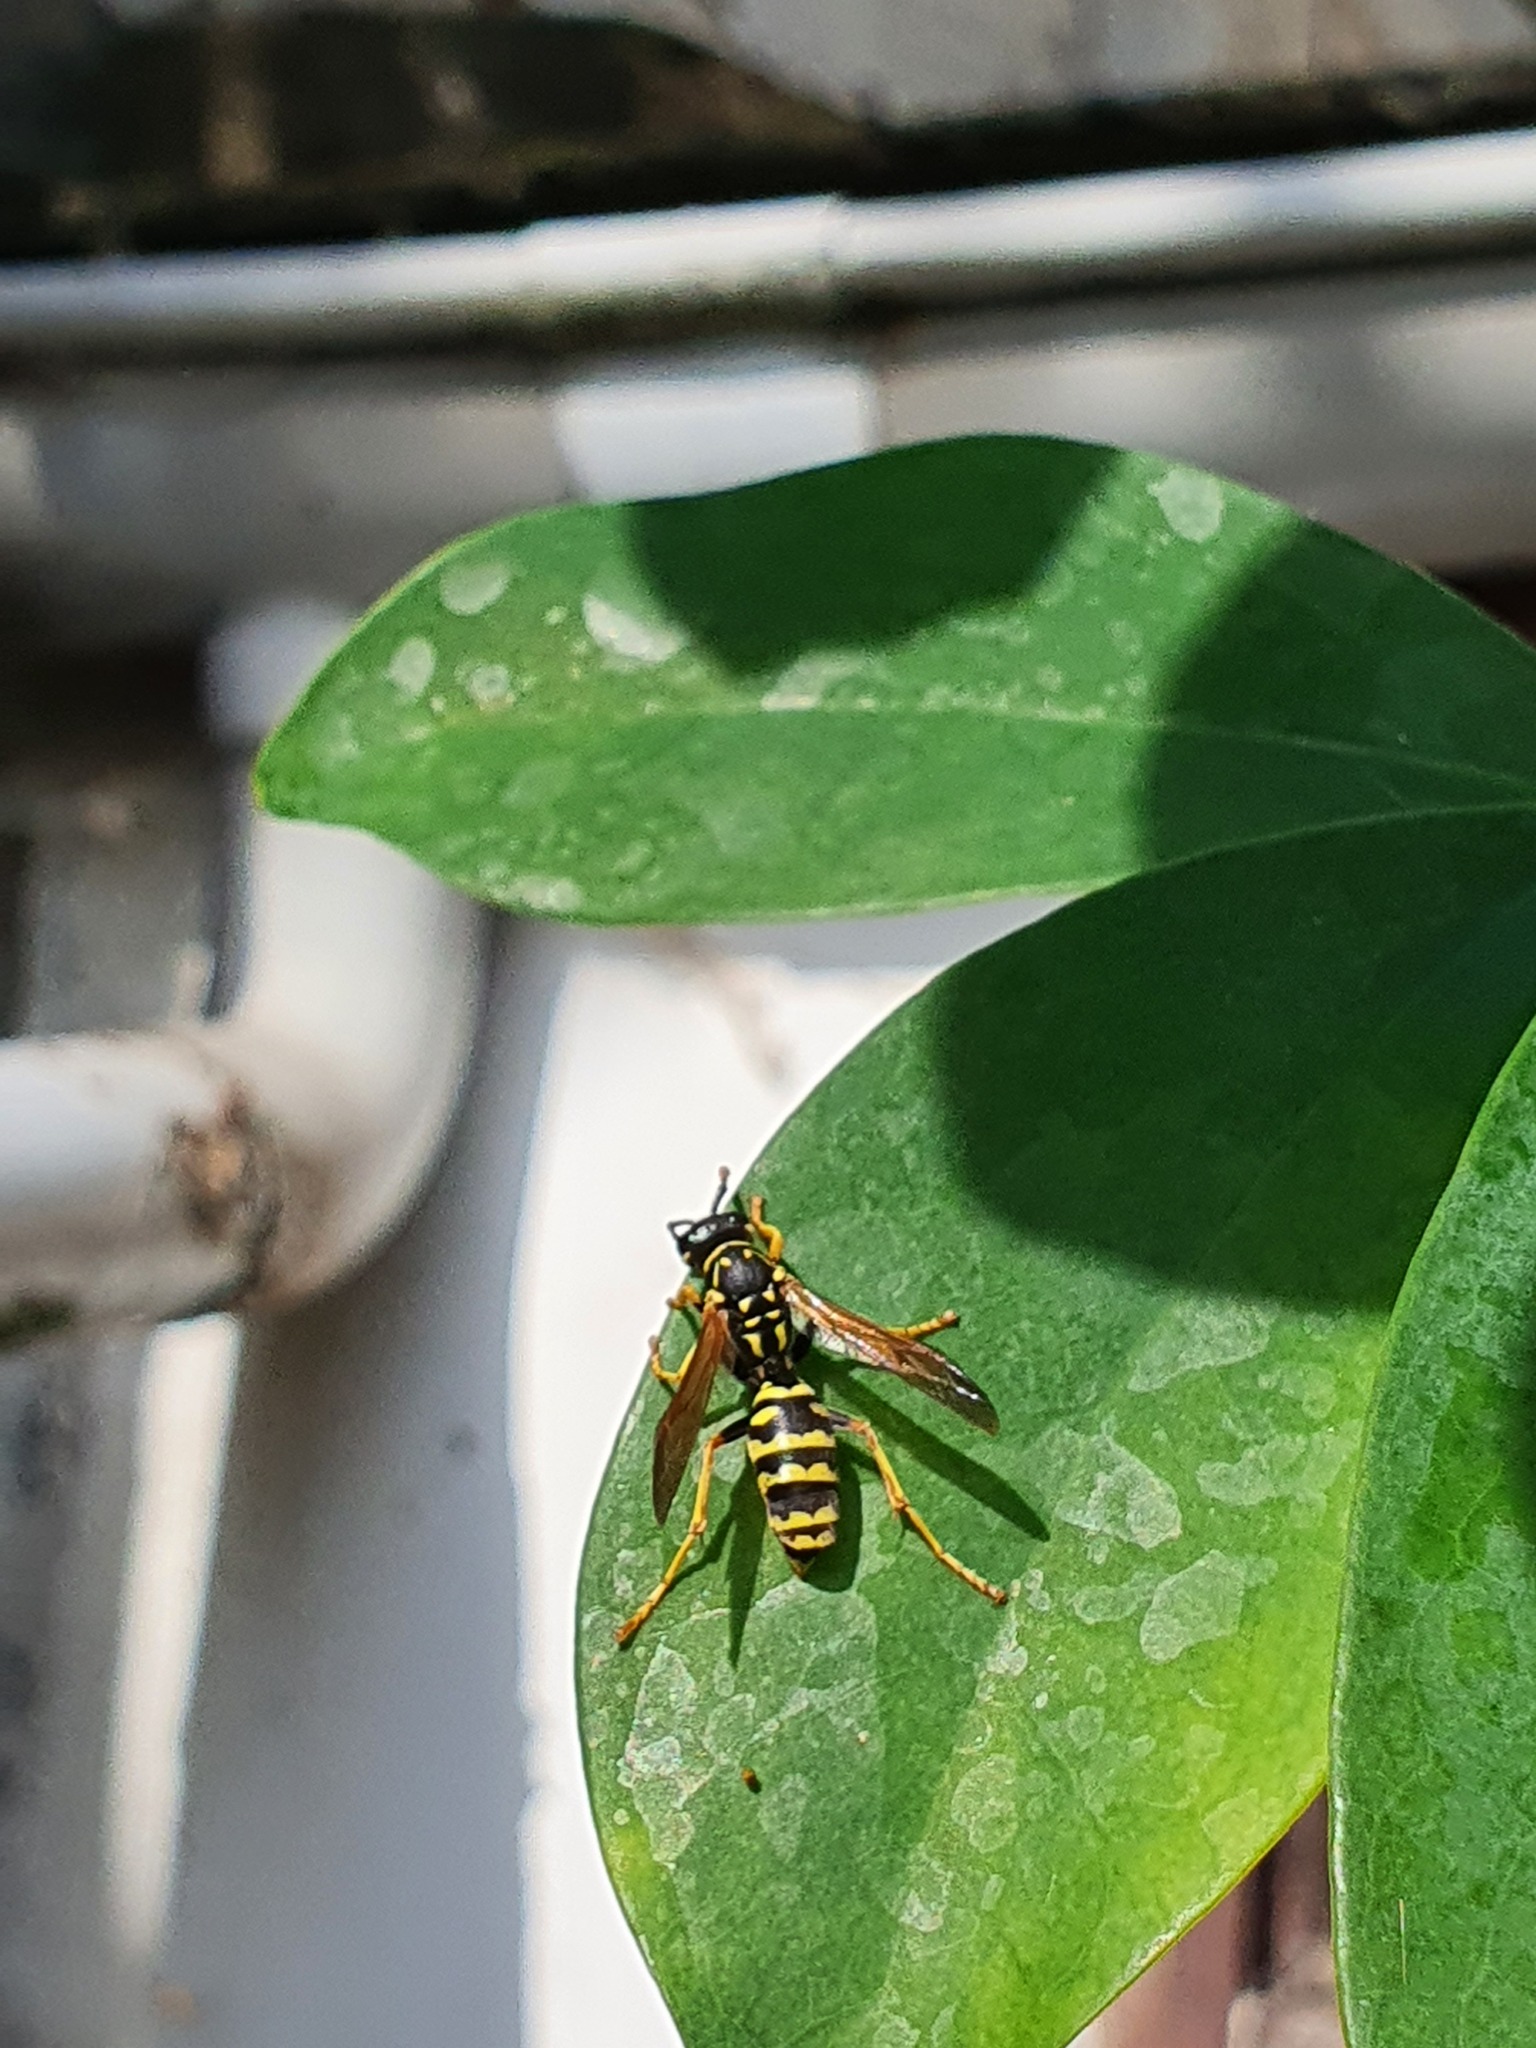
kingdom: Animalia
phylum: Arthropoda
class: Insecta
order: Hymenoptera
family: Eumenidae
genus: Polistes
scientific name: Polistes dominula
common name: Paper wasp
